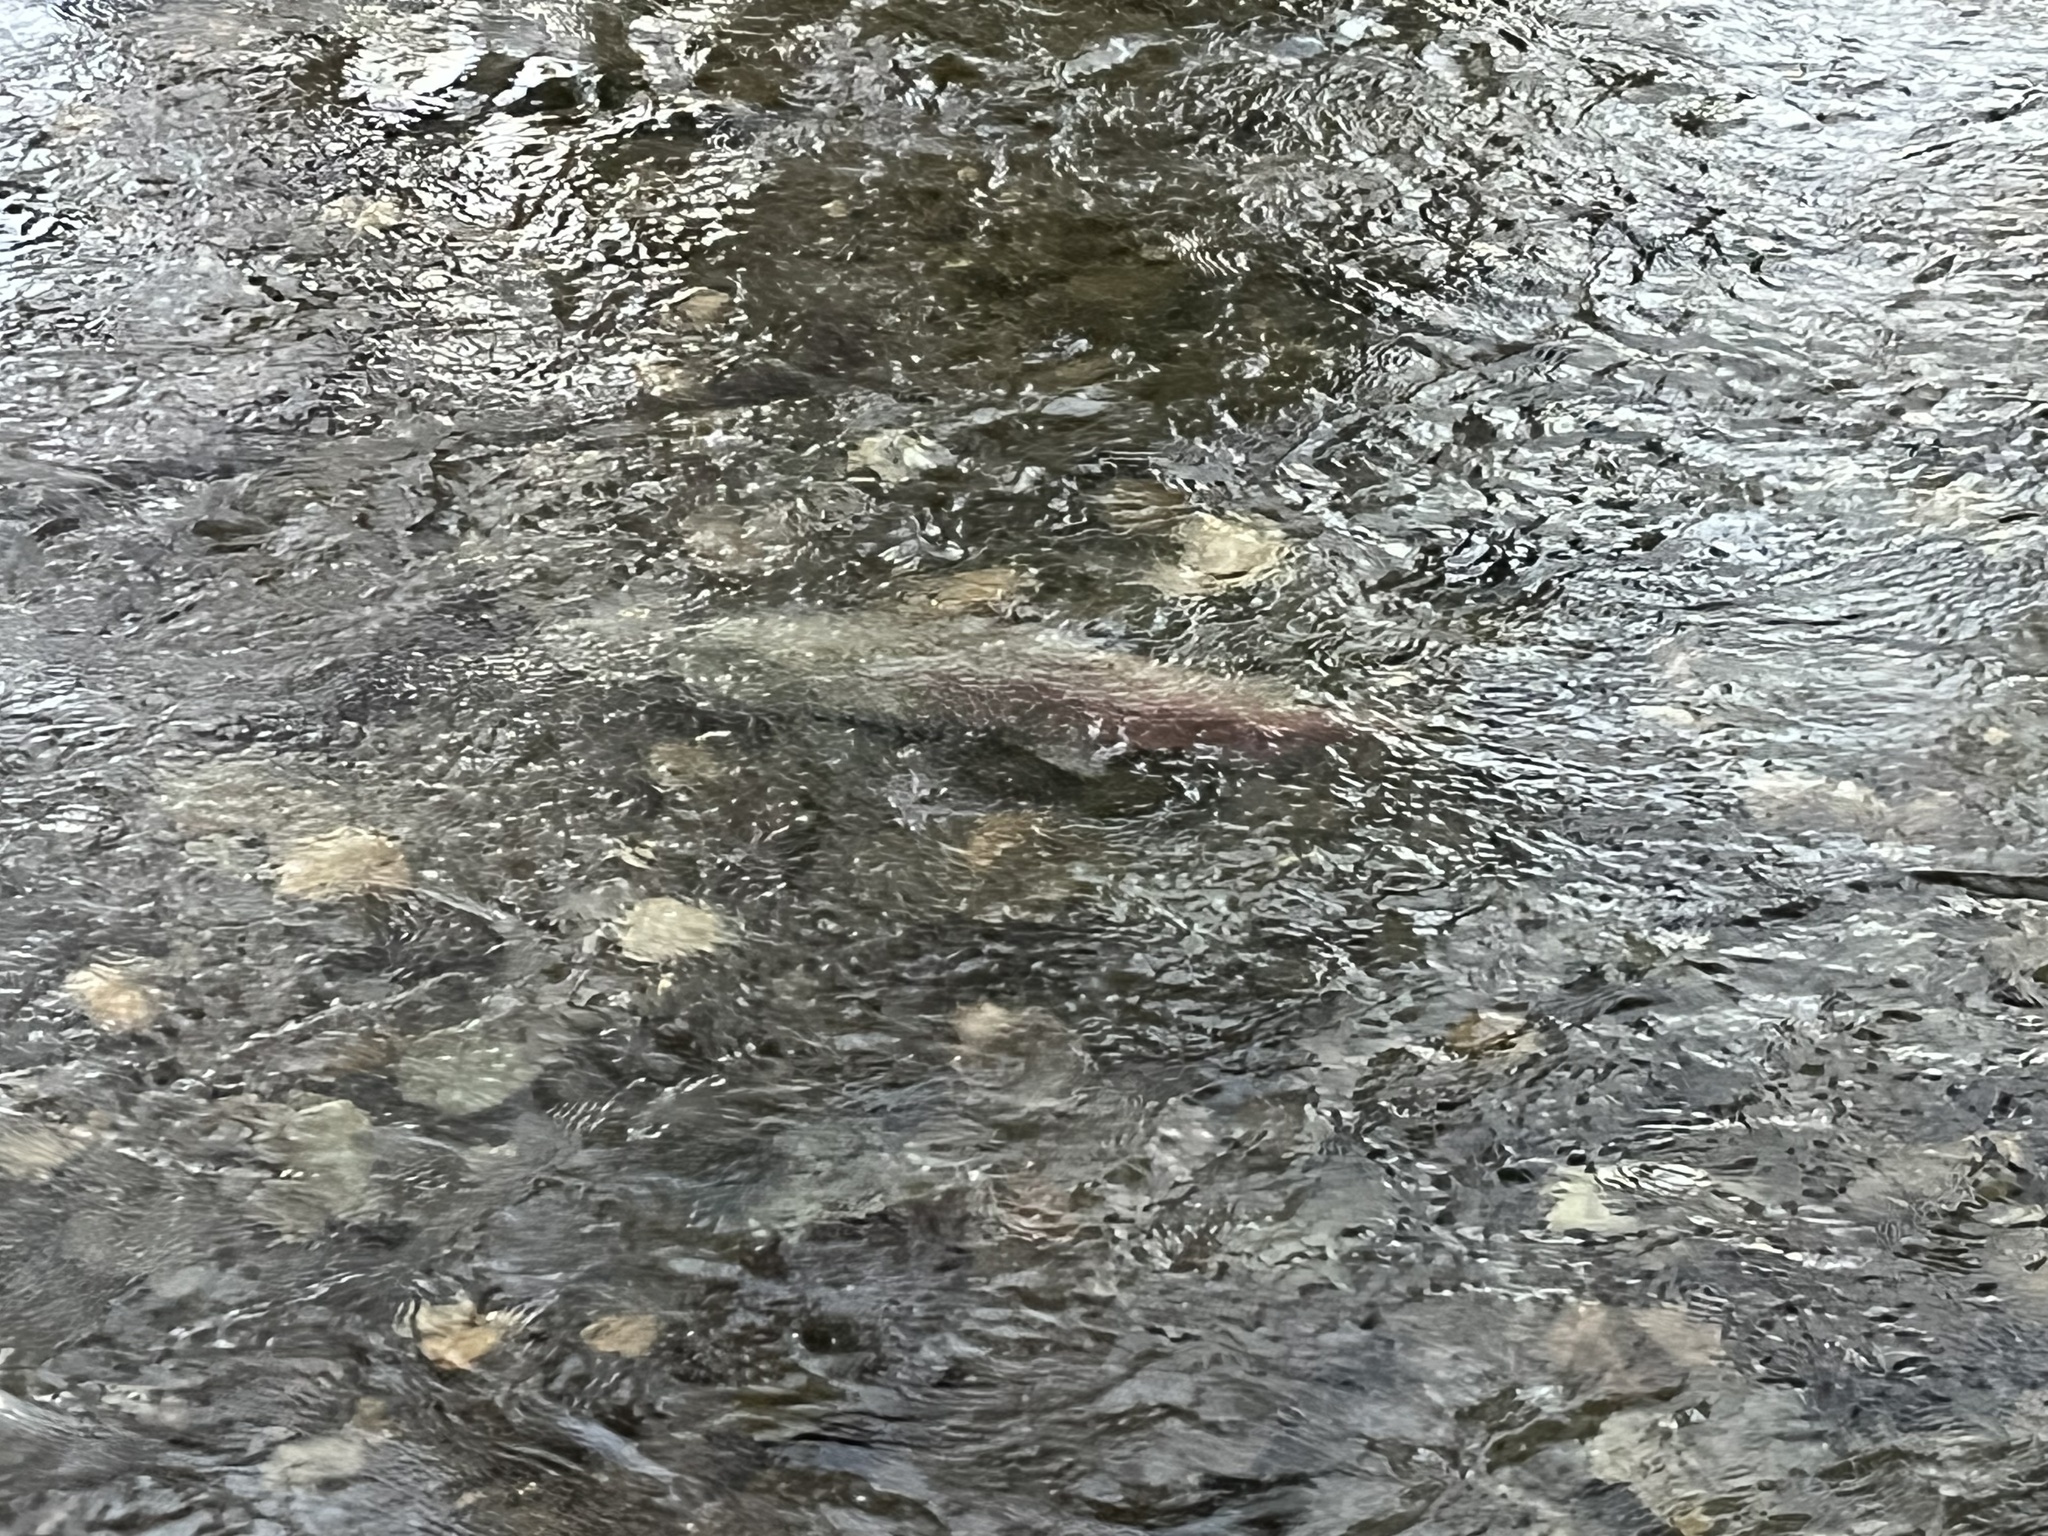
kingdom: Animalia
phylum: Chordata
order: Salmoniformes
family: Salmonidae
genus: Oncorhynchus
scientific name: Oncorhynchus tshawytscha
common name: Chinook salmon
